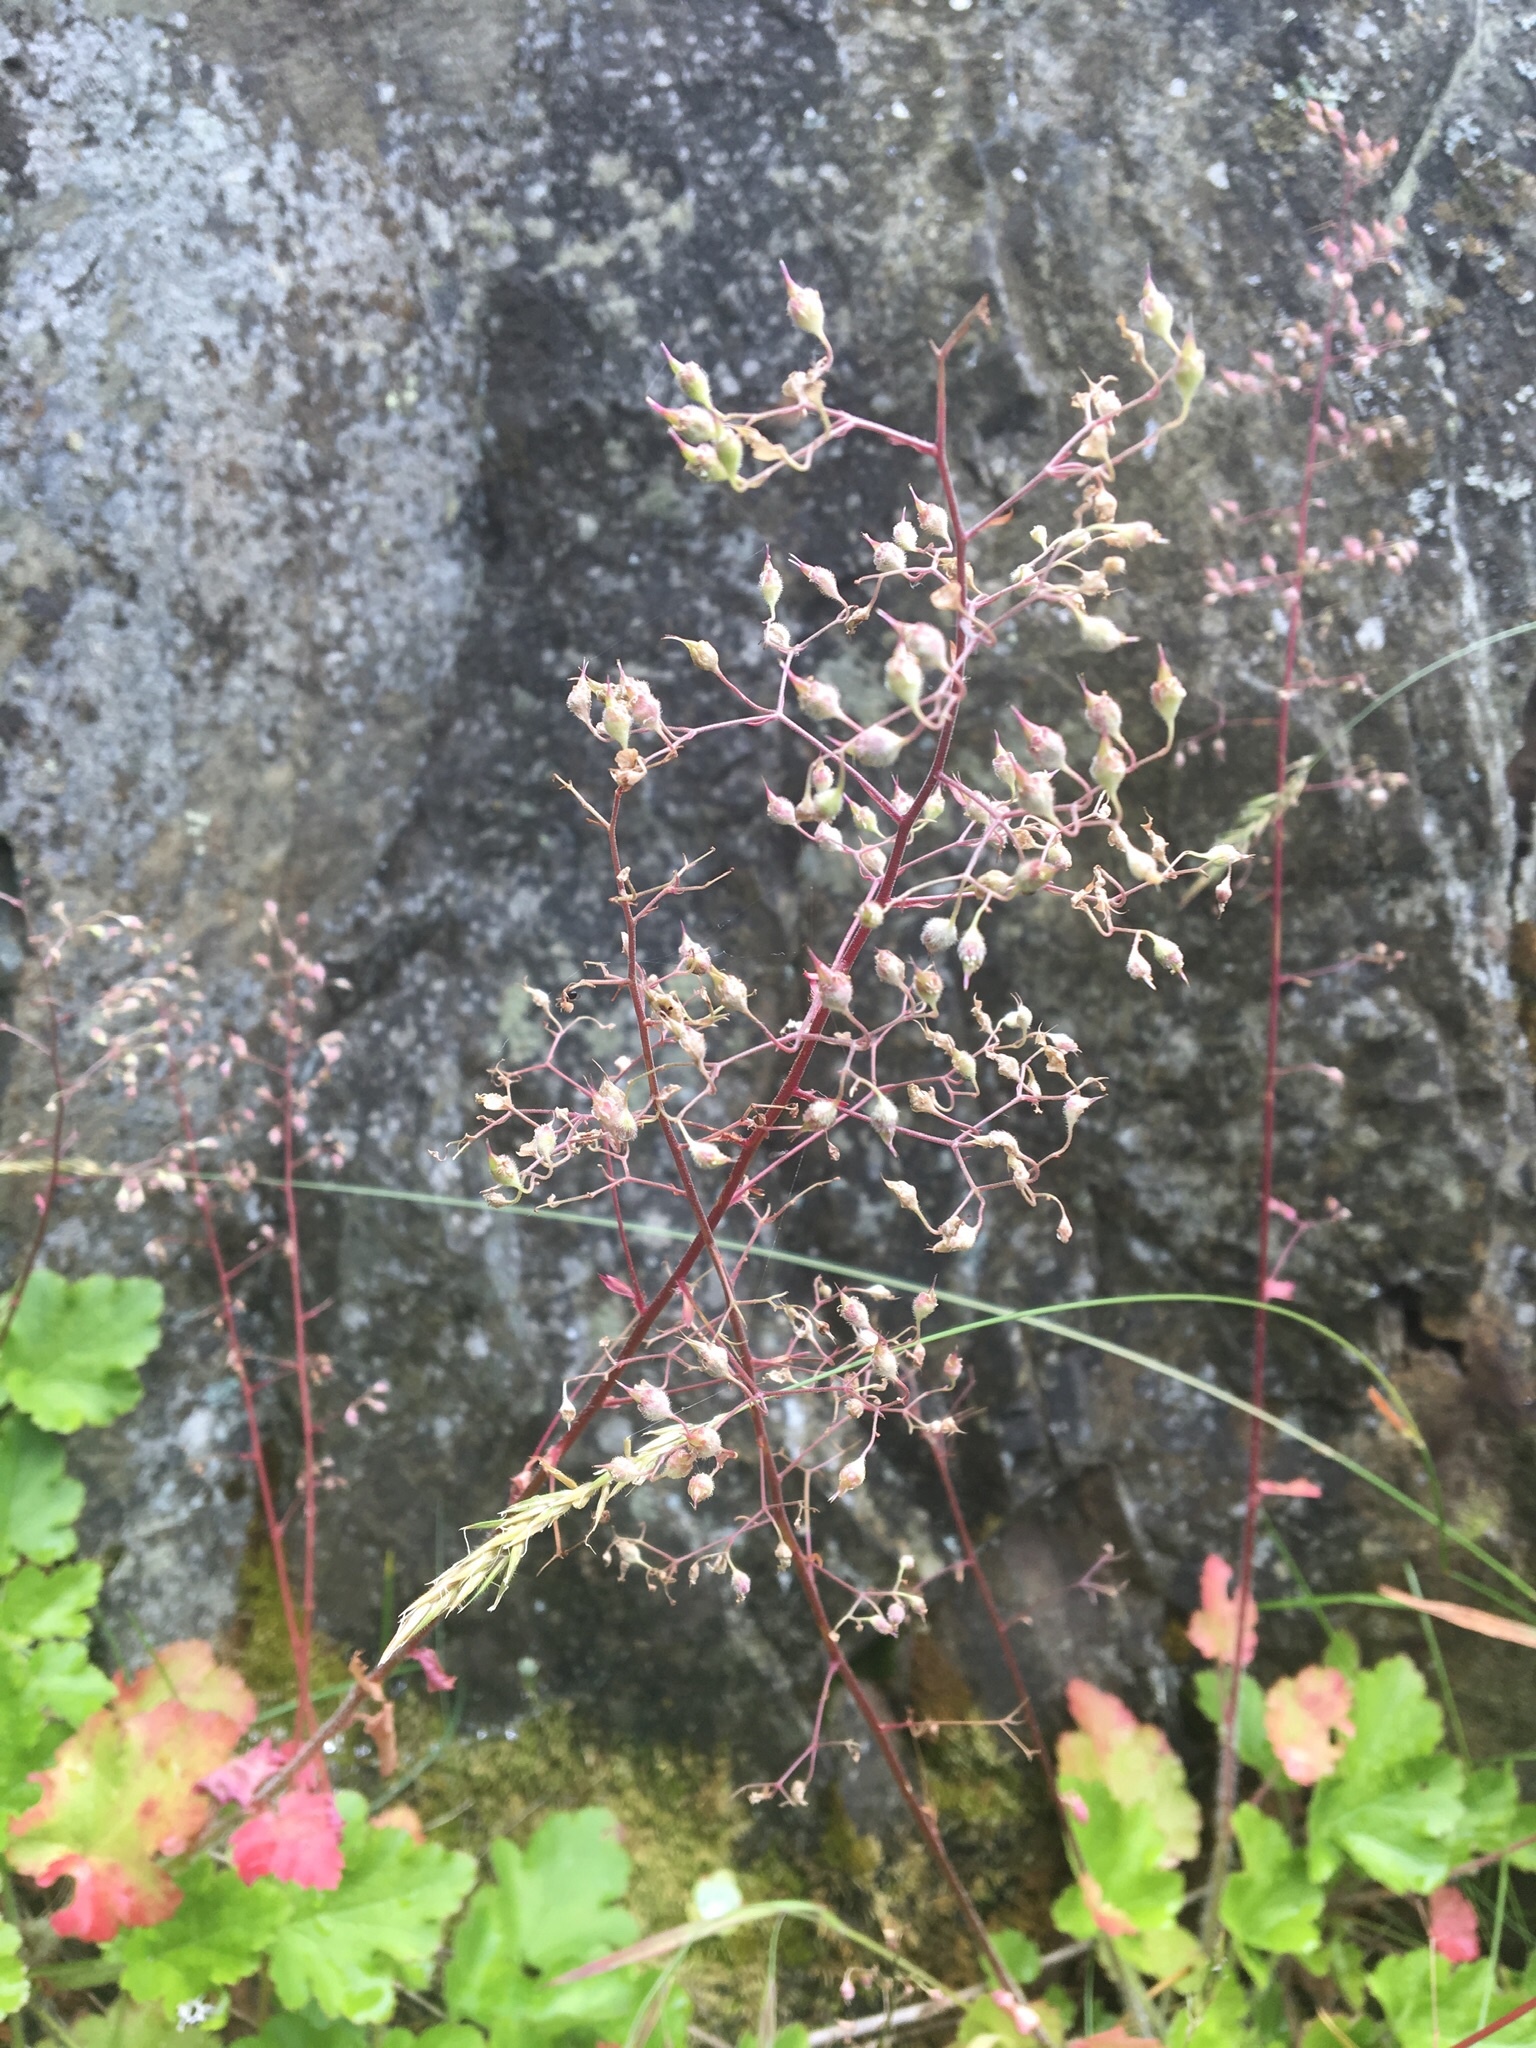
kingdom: Plantae
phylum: Tracheophyta
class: Magnoliopsida
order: Saxifragales
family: Saxifragaceae
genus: Heuchera
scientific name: Heuchera micrantha
